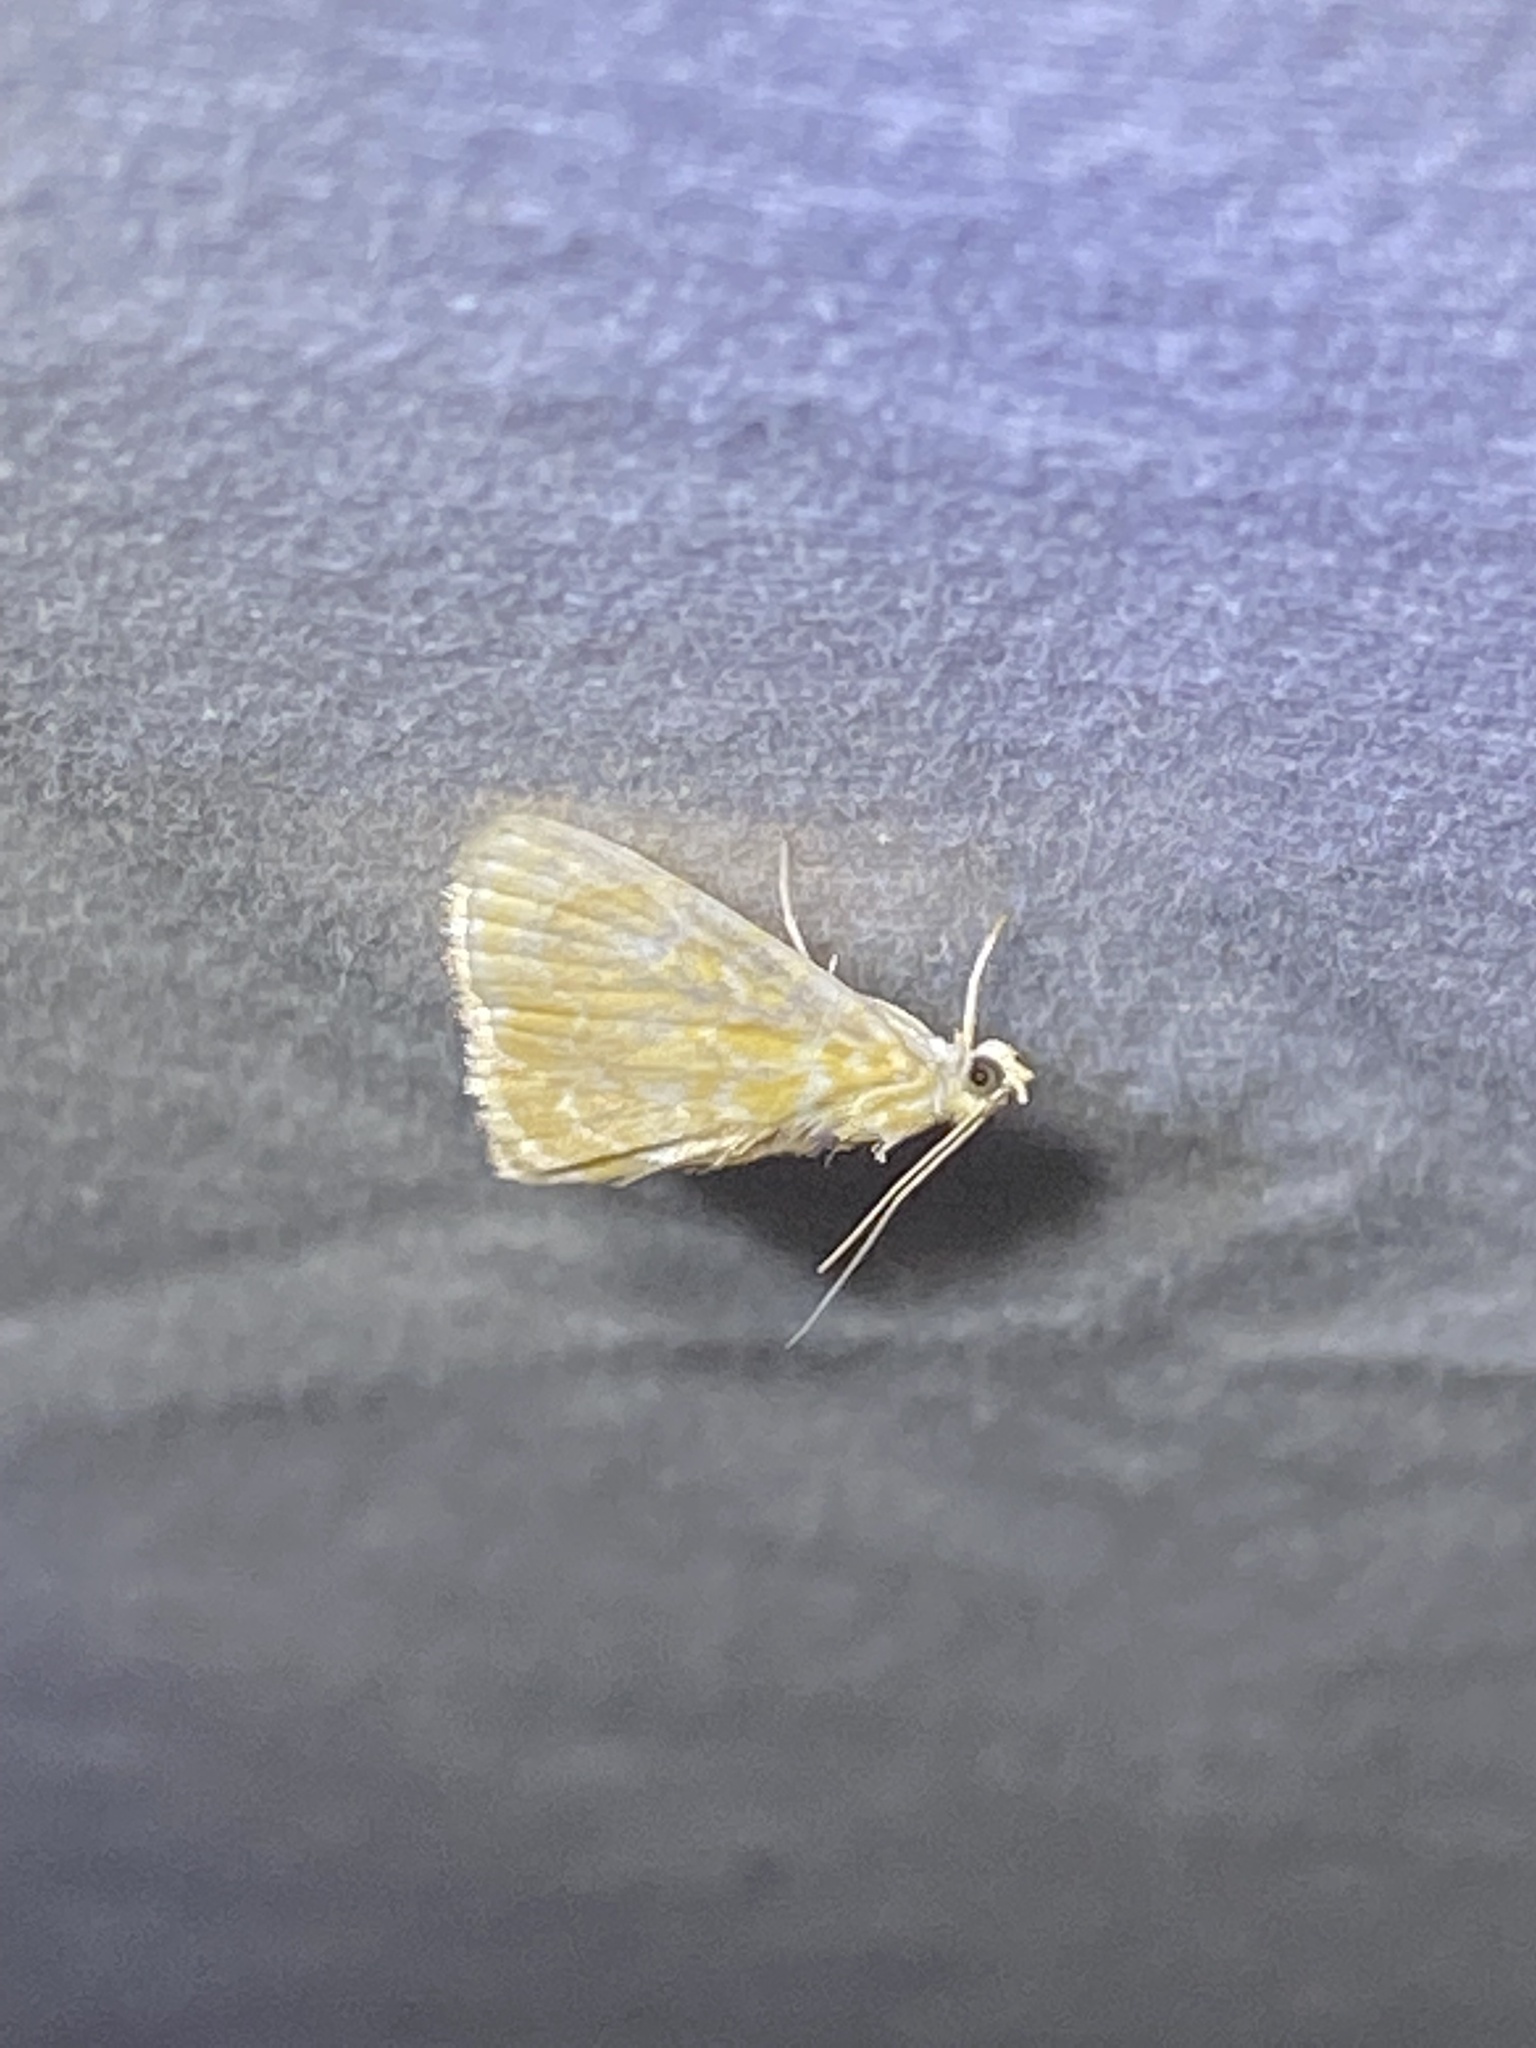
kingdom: Animalia
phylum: Arthropoda
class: Insecta
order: Lepidoptera
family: Crambidae
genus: Glaphyria
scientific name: Glaphyria glaphyralis
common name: Common glaphyria moth
